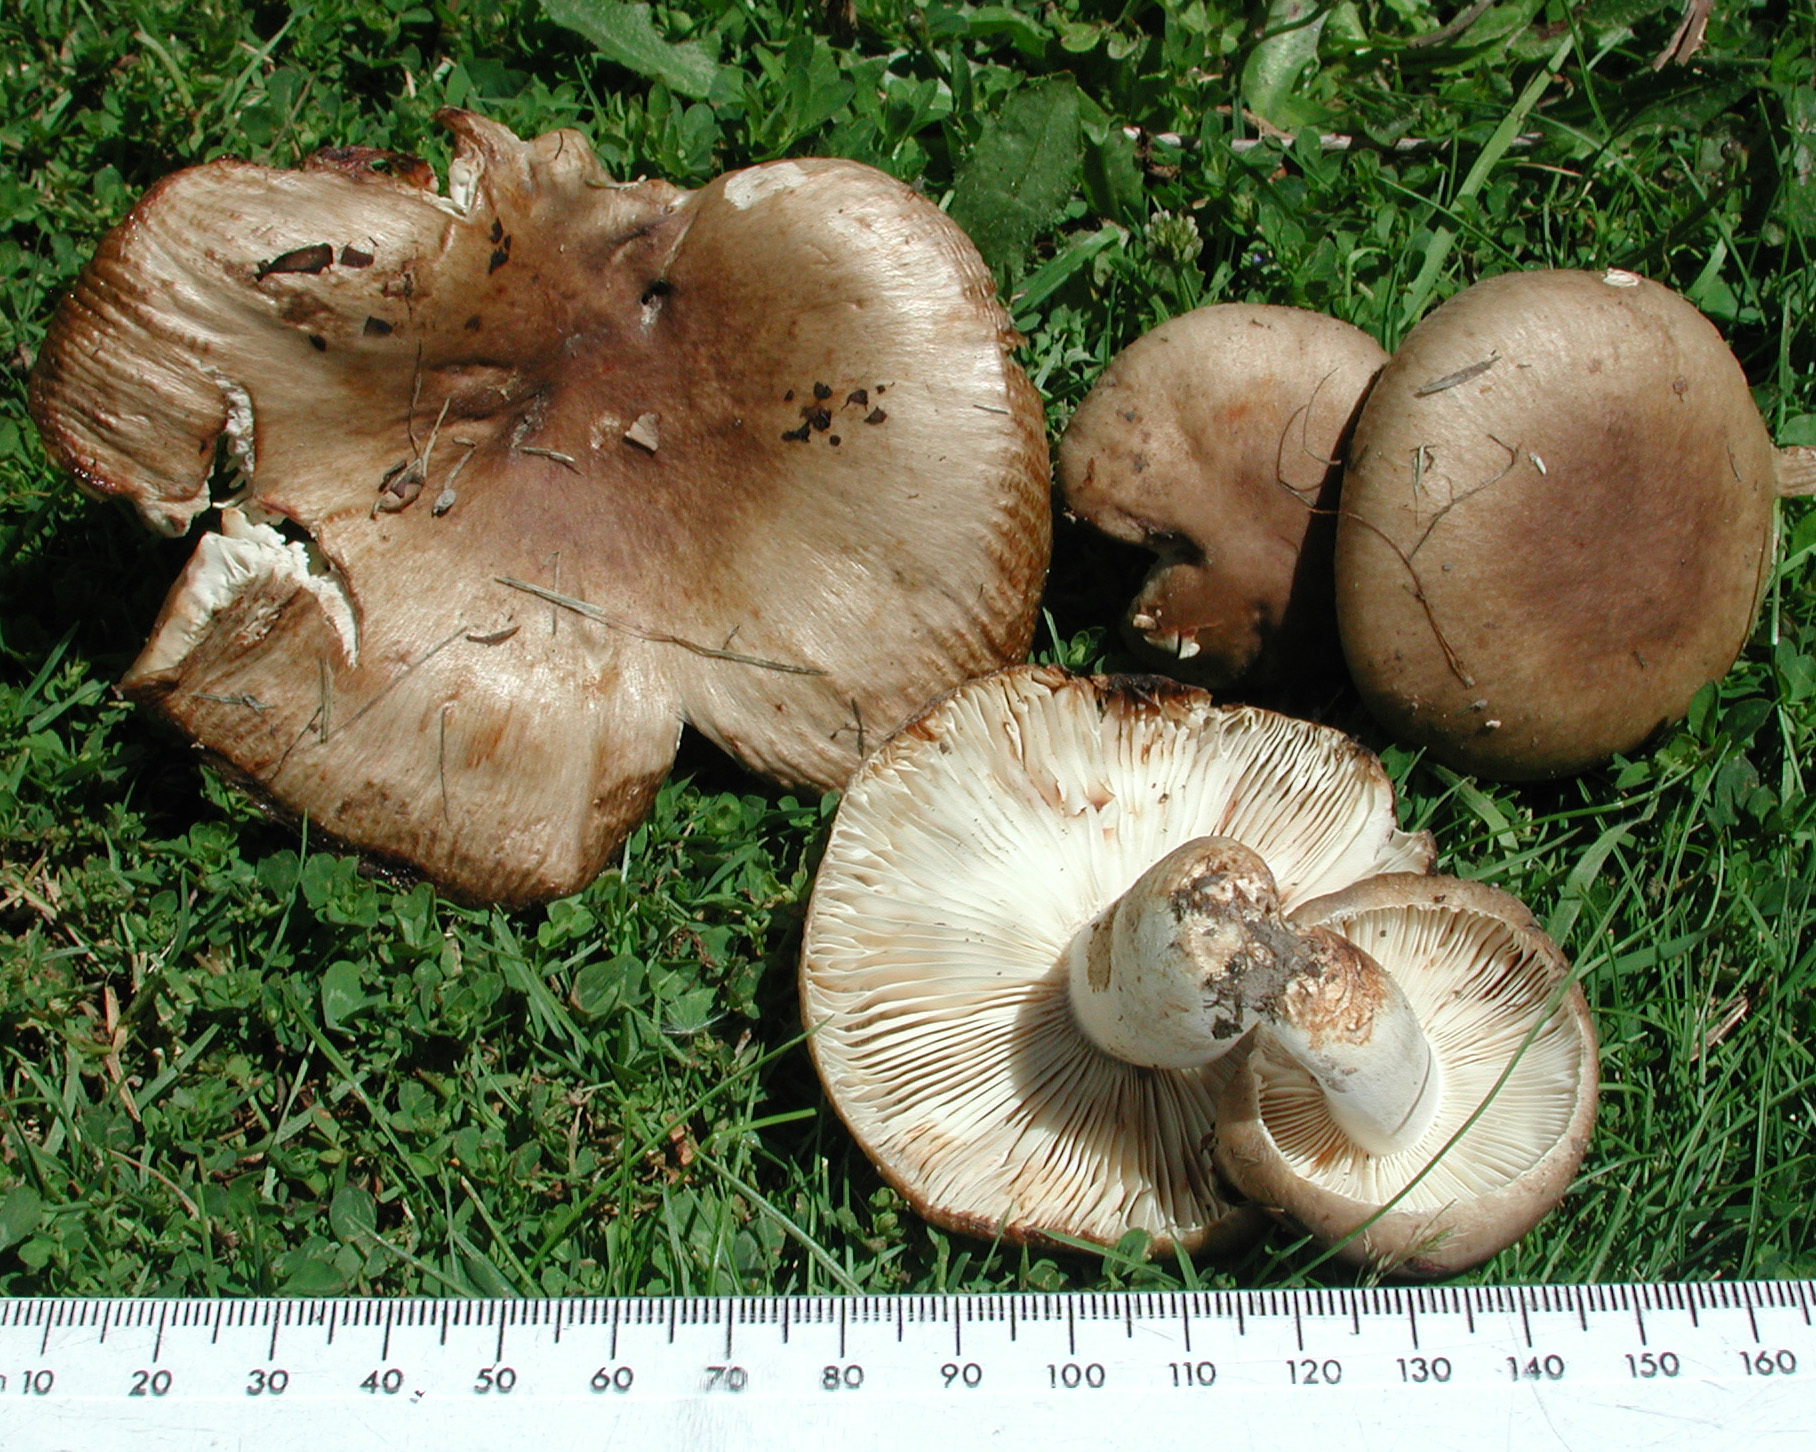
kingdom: Fungi
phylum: Basidiomycota
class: Agaricomycetes
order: Russulales
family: Russulaceae
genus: Russula
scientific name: Russula amoenolens
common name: Camembert brittlegill
